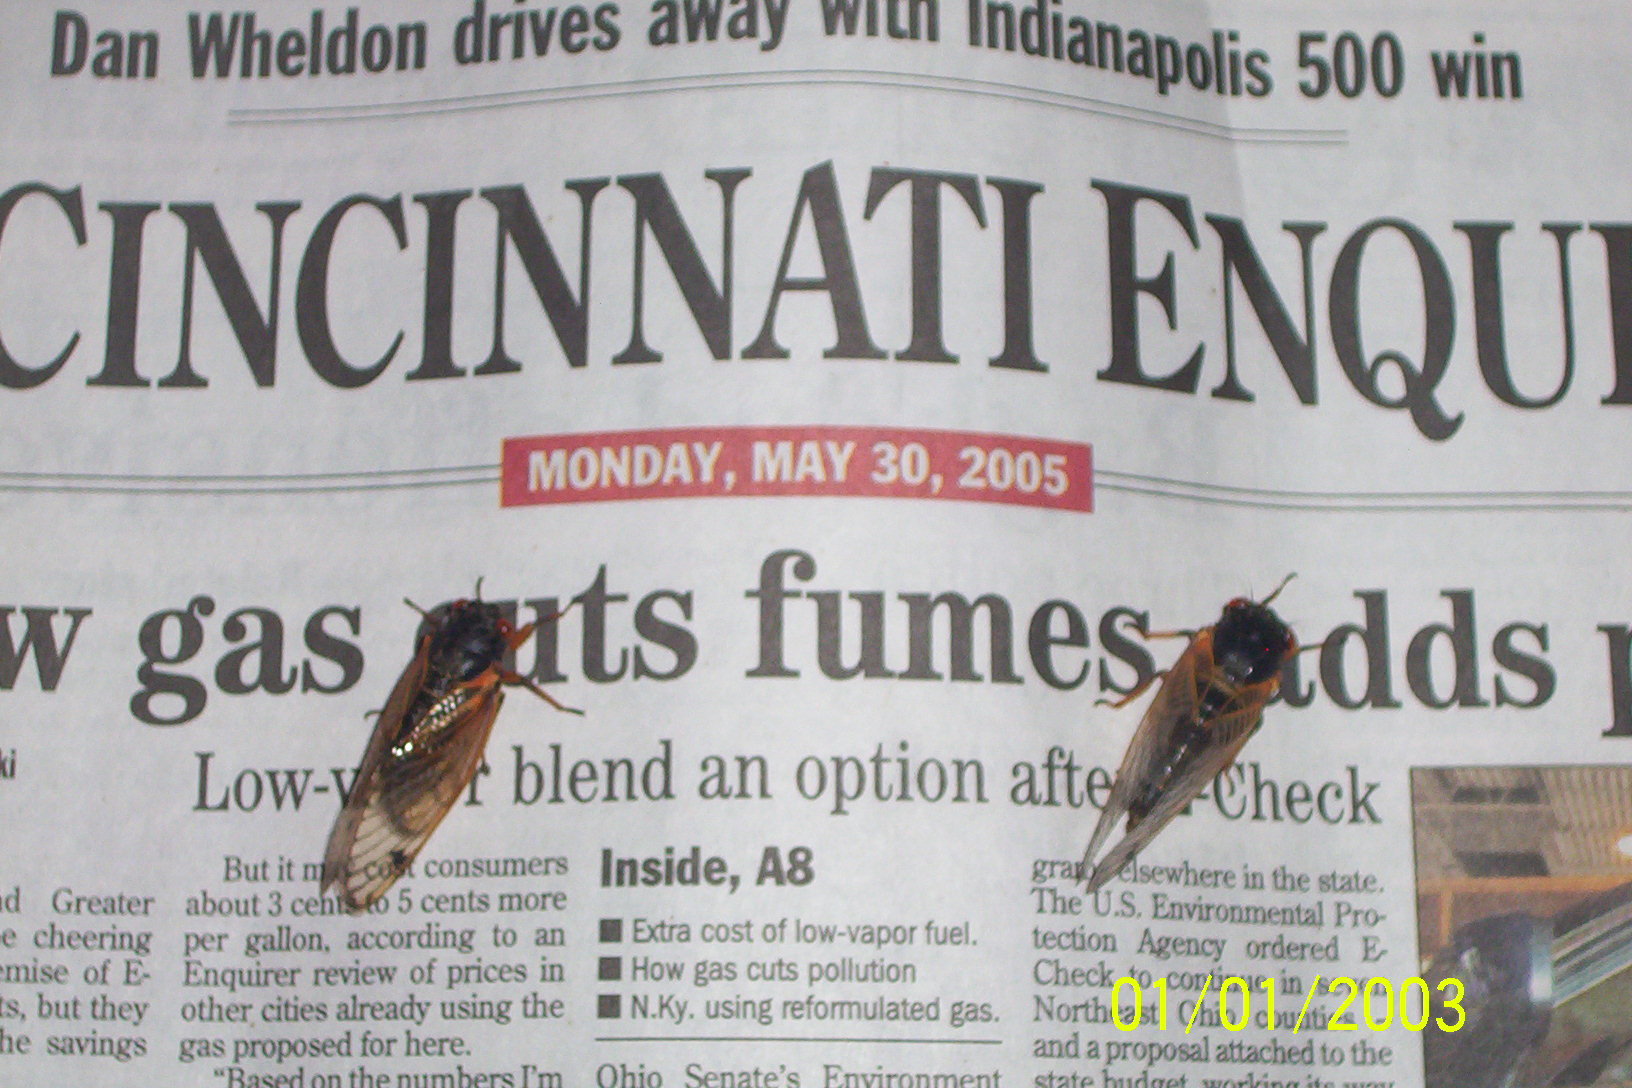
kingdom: Animalia
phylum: Arthropoda
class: Insecta
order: Hemiptera
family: Cicadidae
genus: Magicicada
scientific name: Magicicada
